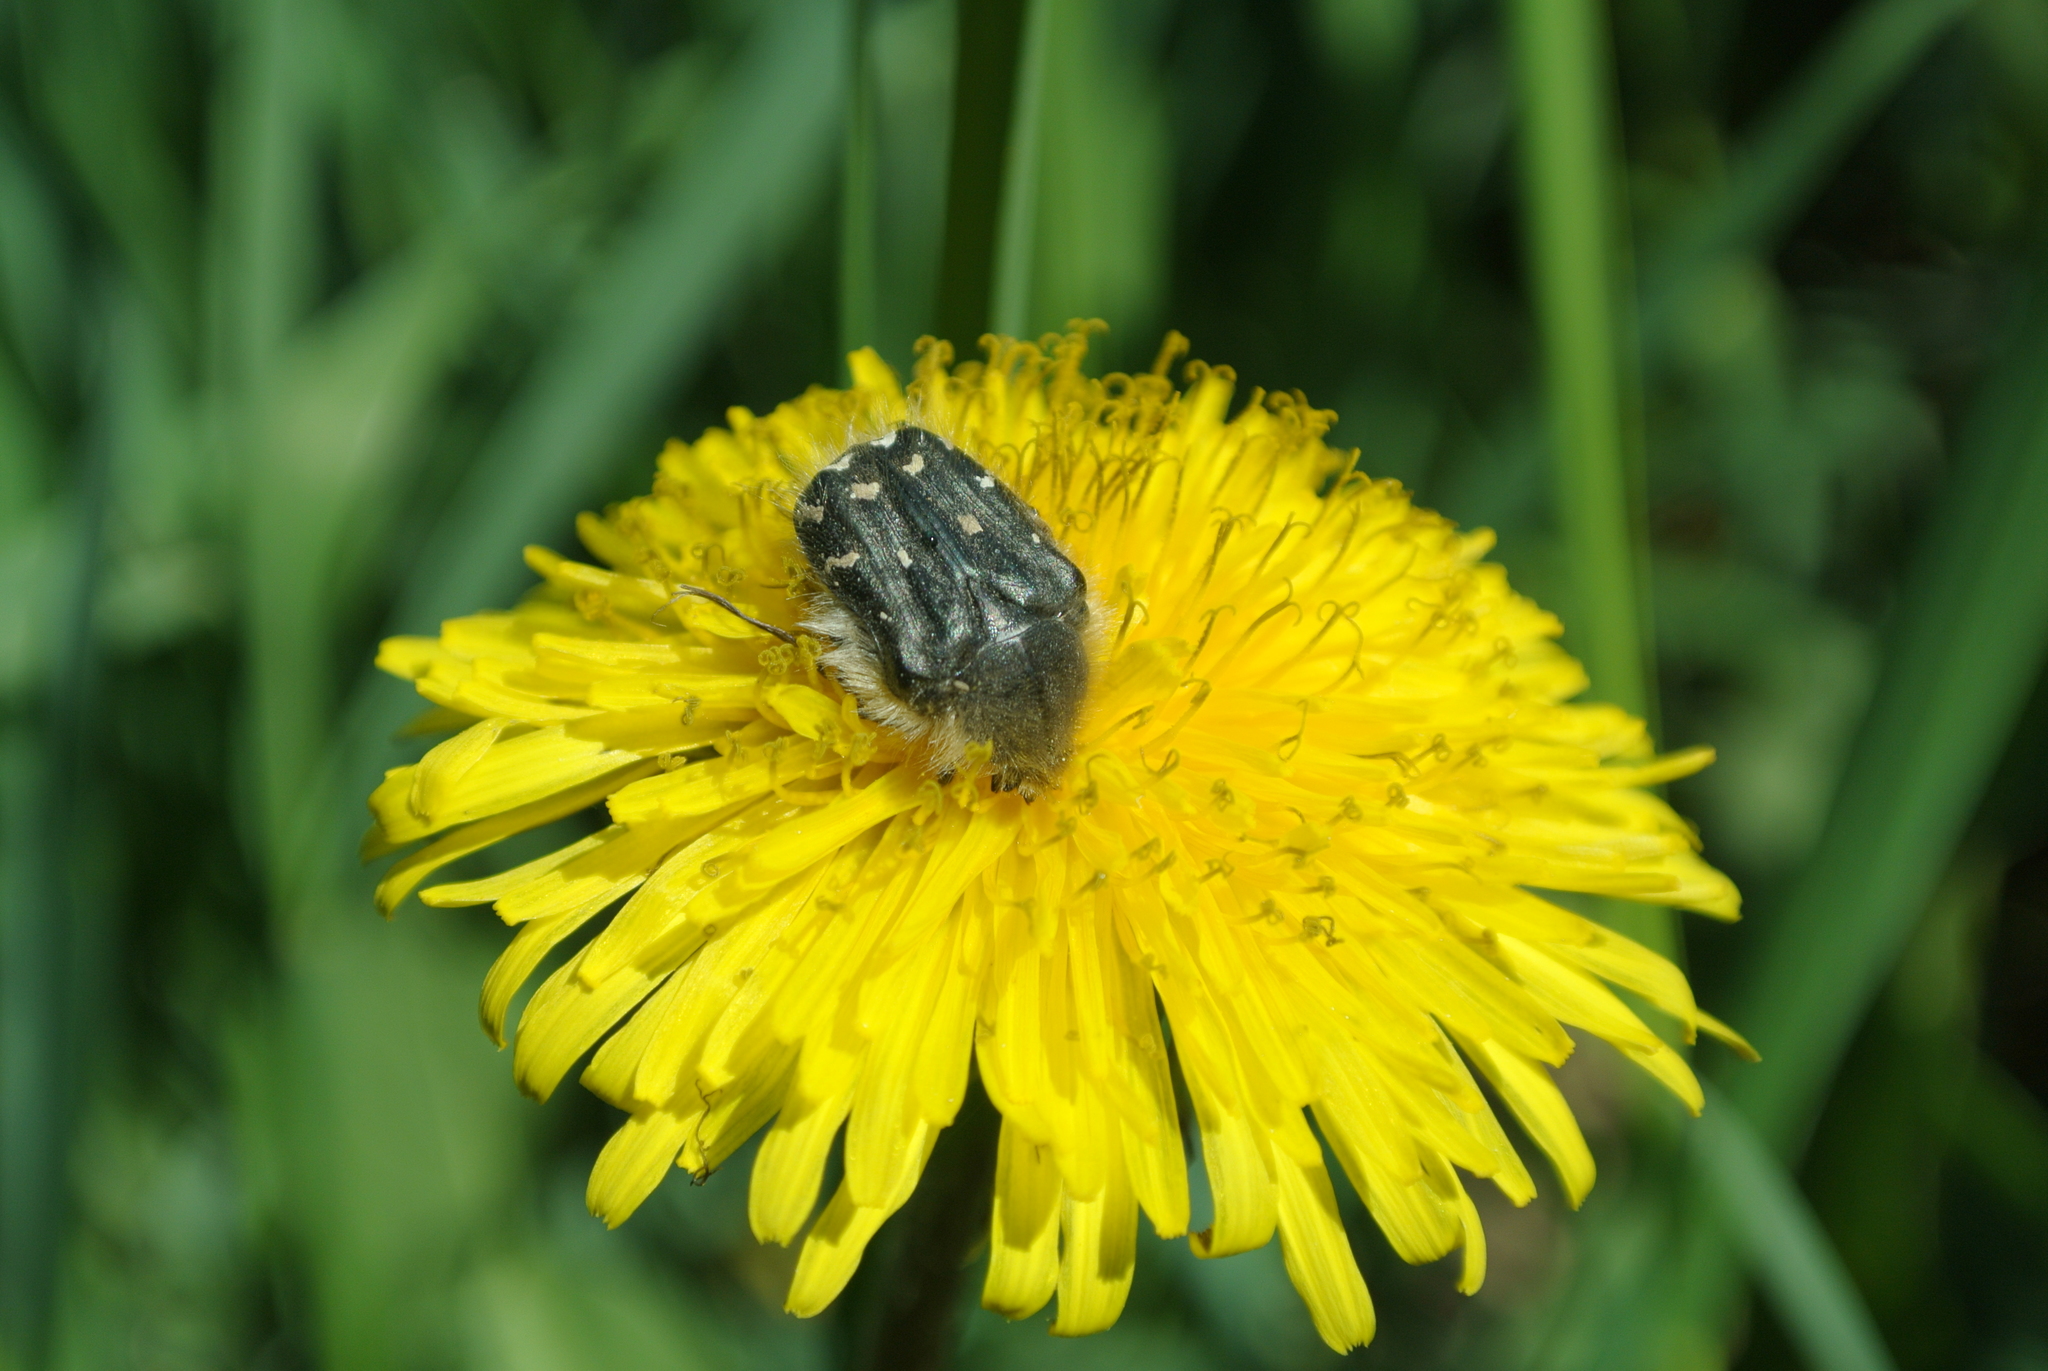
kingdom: Animalia
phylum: Arthropoda
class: Insecta
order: Coleoptera
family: Scarabaeidae
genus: Tropinota
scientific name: Tropinota hirta
